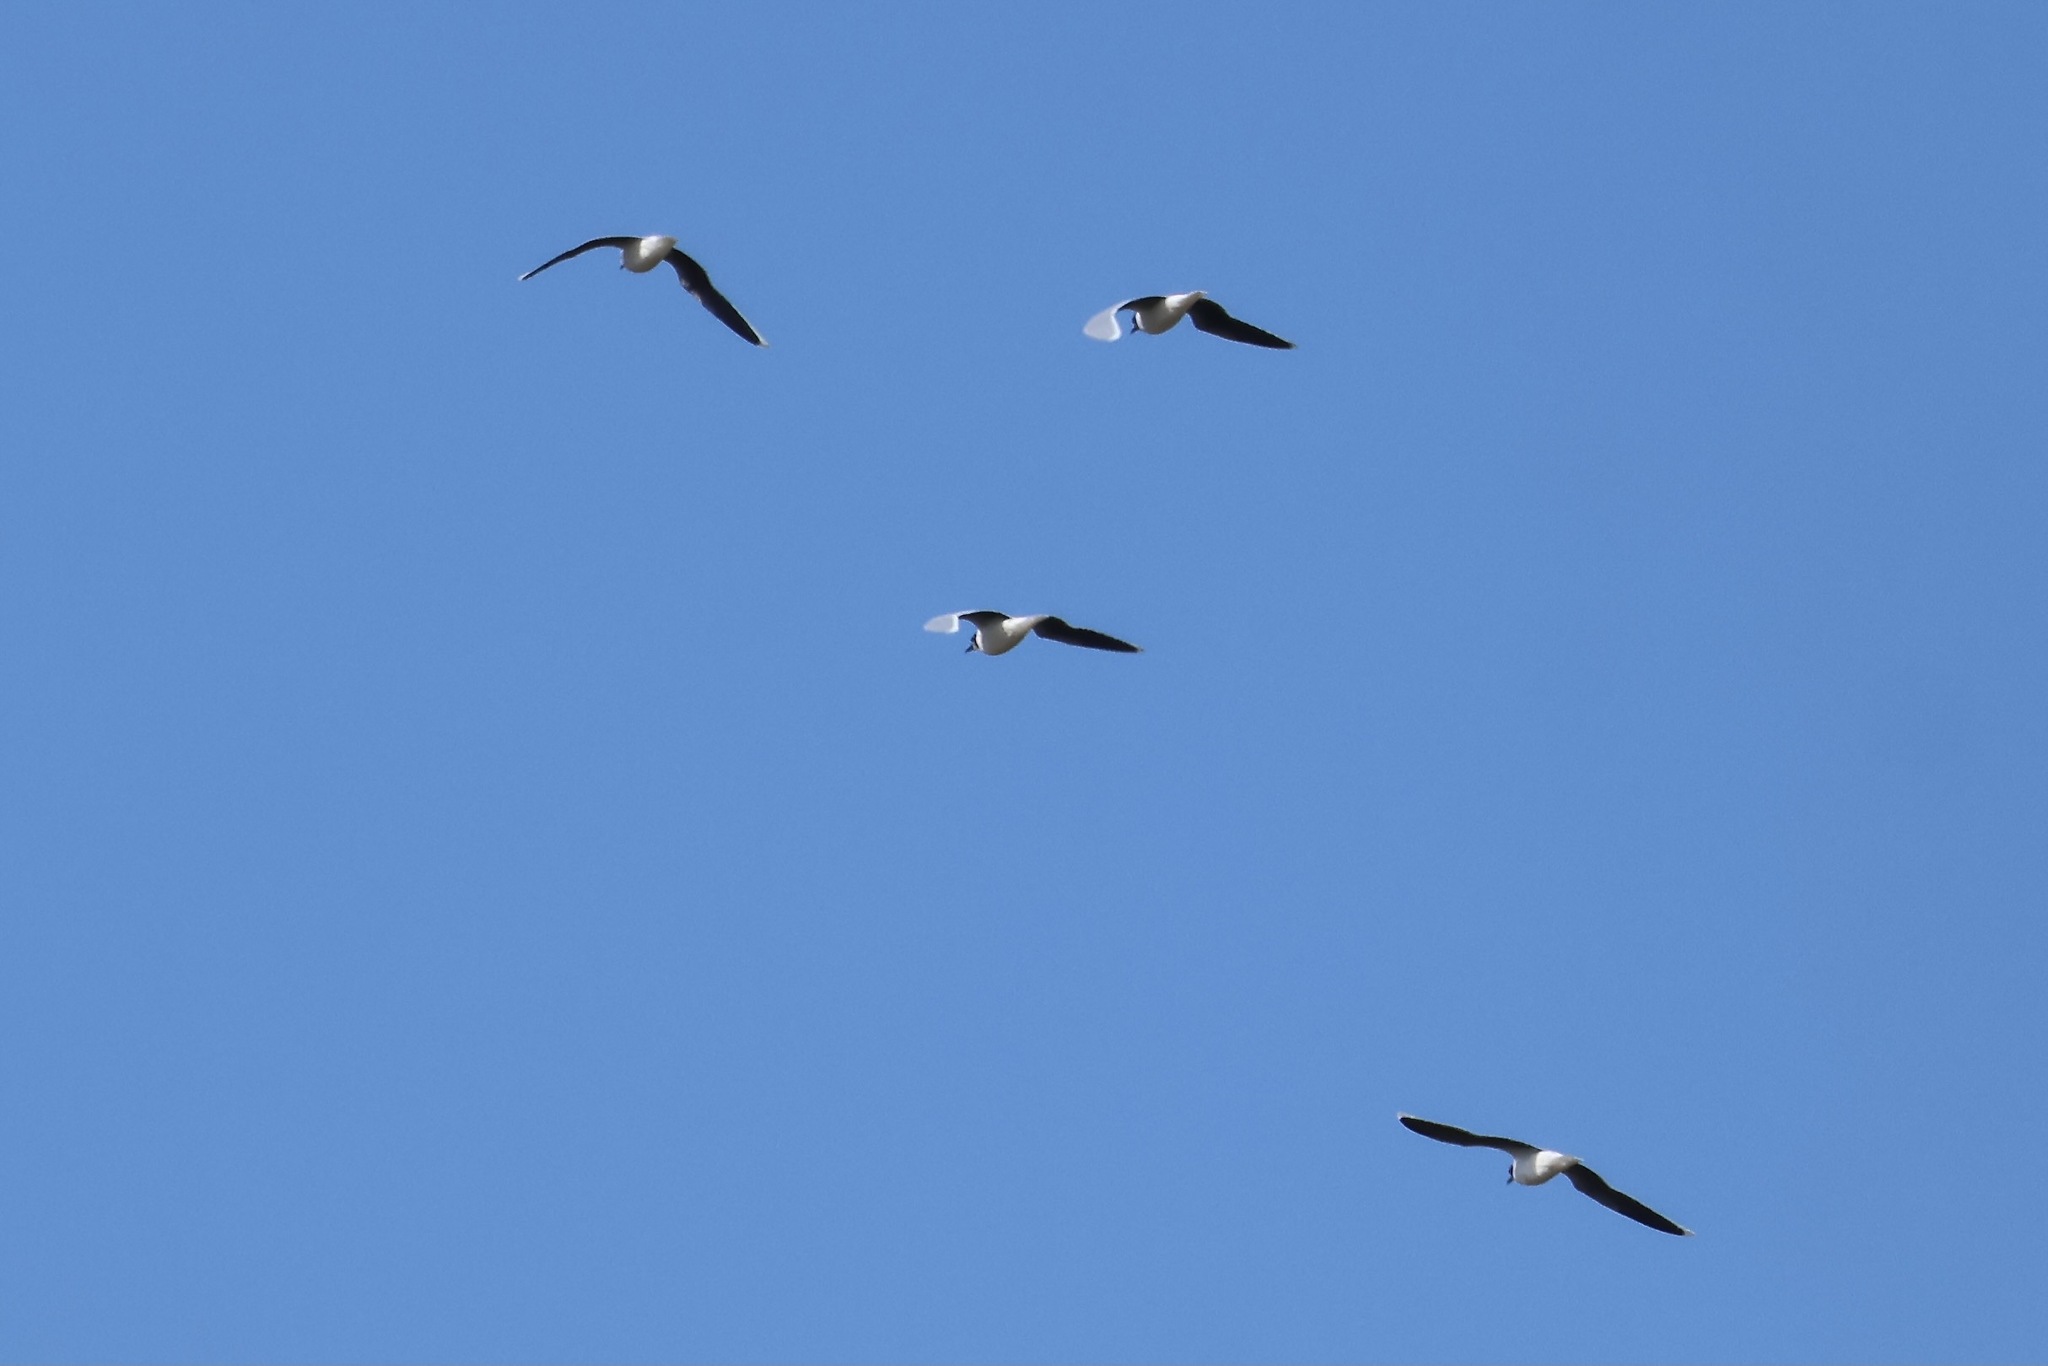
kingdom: Animalia
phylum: Chordata
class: Aves
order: Charadriiformes
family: Laridae
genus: Hydrocoloeus
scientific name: Hydrocoloeus minutus
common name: Little gull
